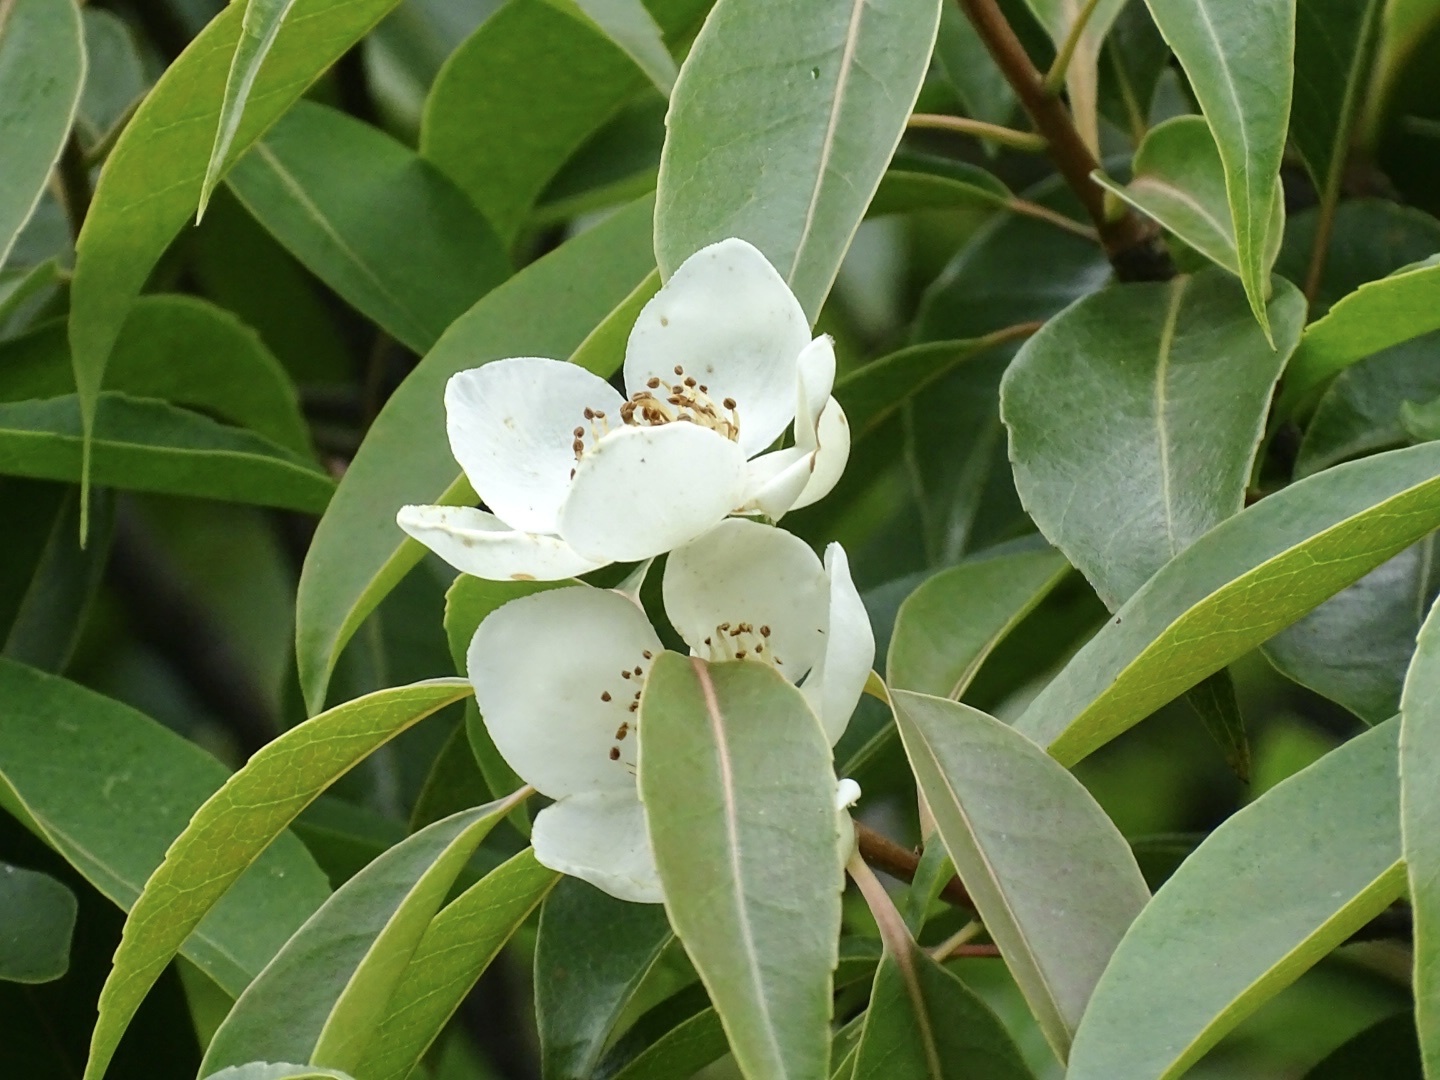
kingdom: Plantae
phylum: Tracheophyta
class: Magnoliopsida
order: Ericales
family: Theaceae
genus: Schima
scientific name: Schima superba
